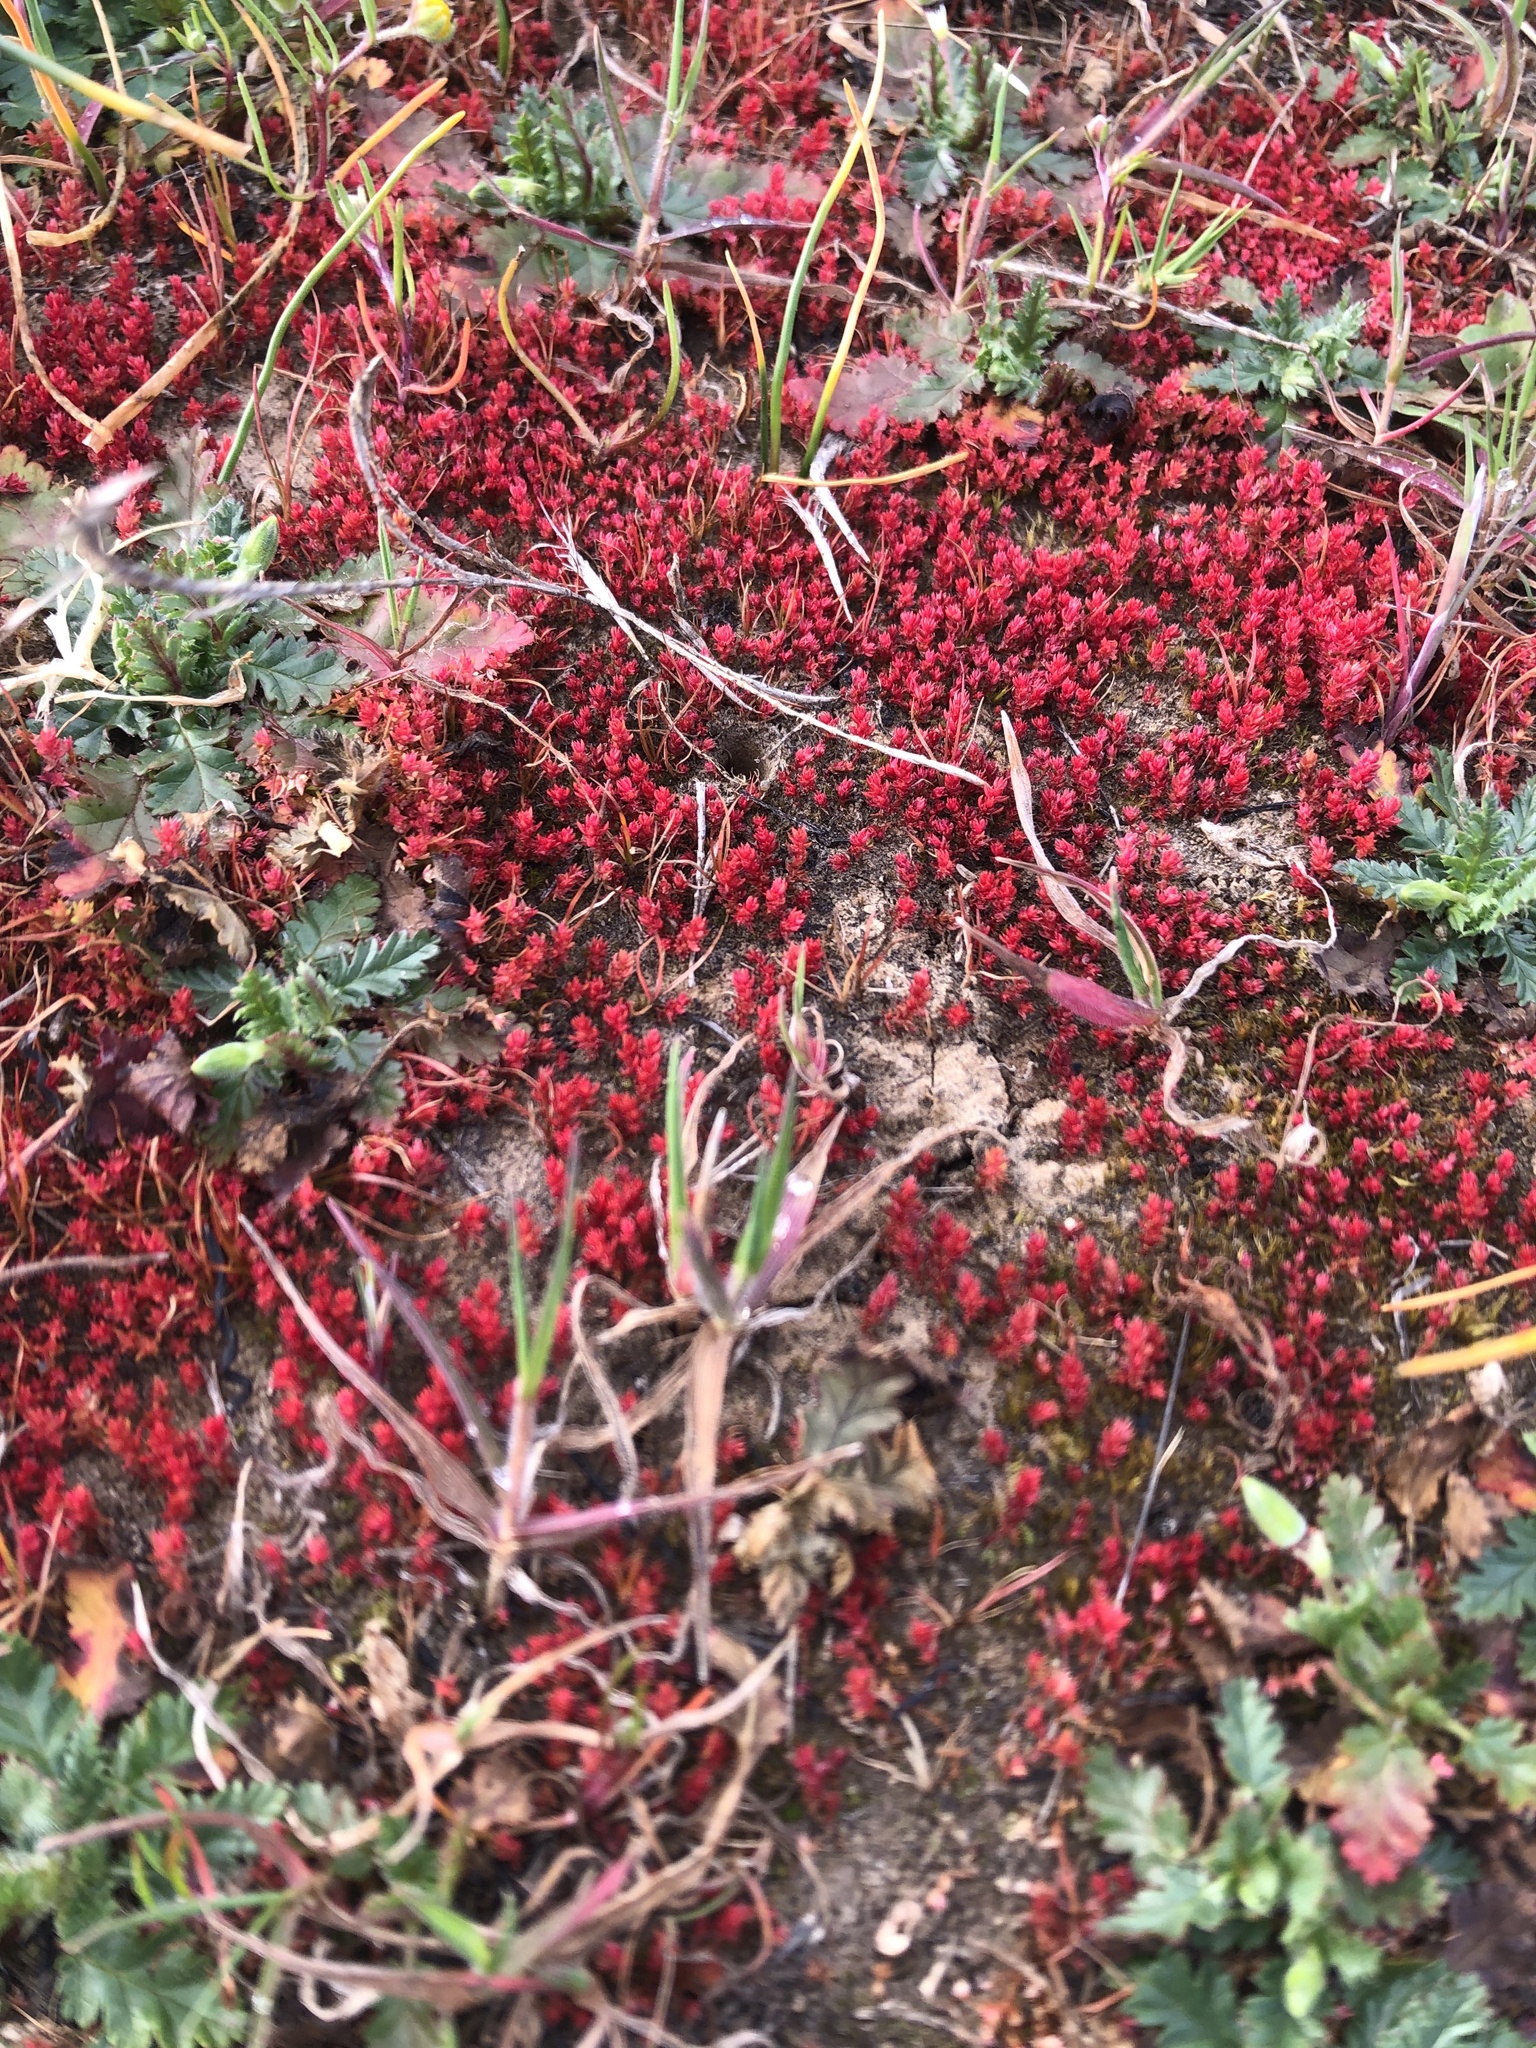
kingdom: Plantae
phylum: Tracheophyta
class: Magnoliopsida
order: Saxifragales
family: Crassulaceae
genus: Crassula
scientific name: Crassula tillaea
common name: Mossy stonecrop
